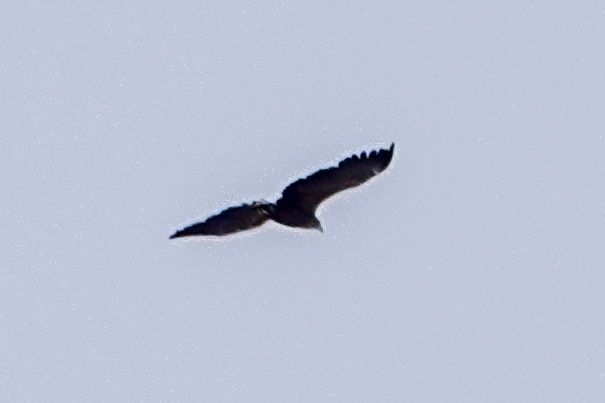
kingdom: Animalia
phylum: Chordata
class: Aves
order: Accipitriformes
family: Accipitridae
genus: Haliaeetus
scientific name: Haliaeetus albicilla
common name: White-tailed eagle
